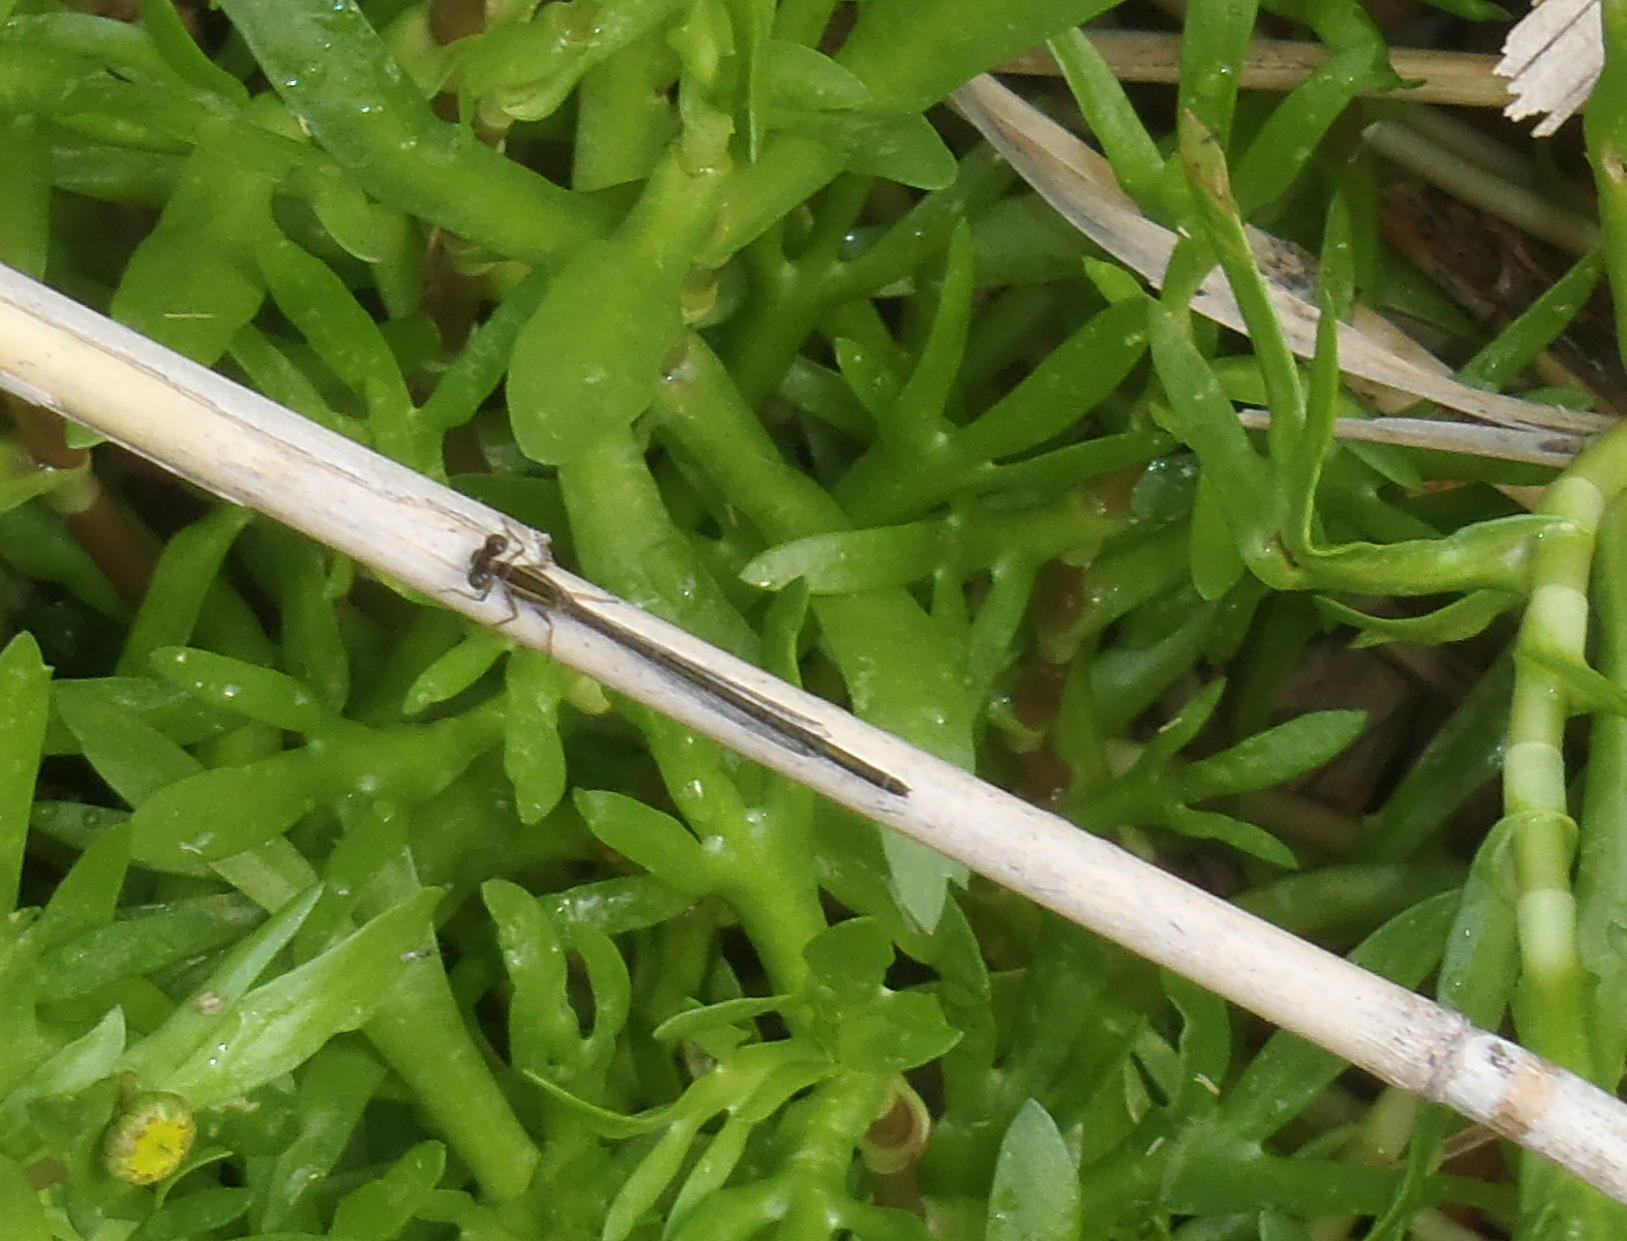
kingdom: Animalia
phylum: Arthropoda
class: Insecta
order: Odonata
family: Coenagrionidae
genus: Ischnura
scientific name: Ischnura senegalensis
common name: Tropical bluetail
